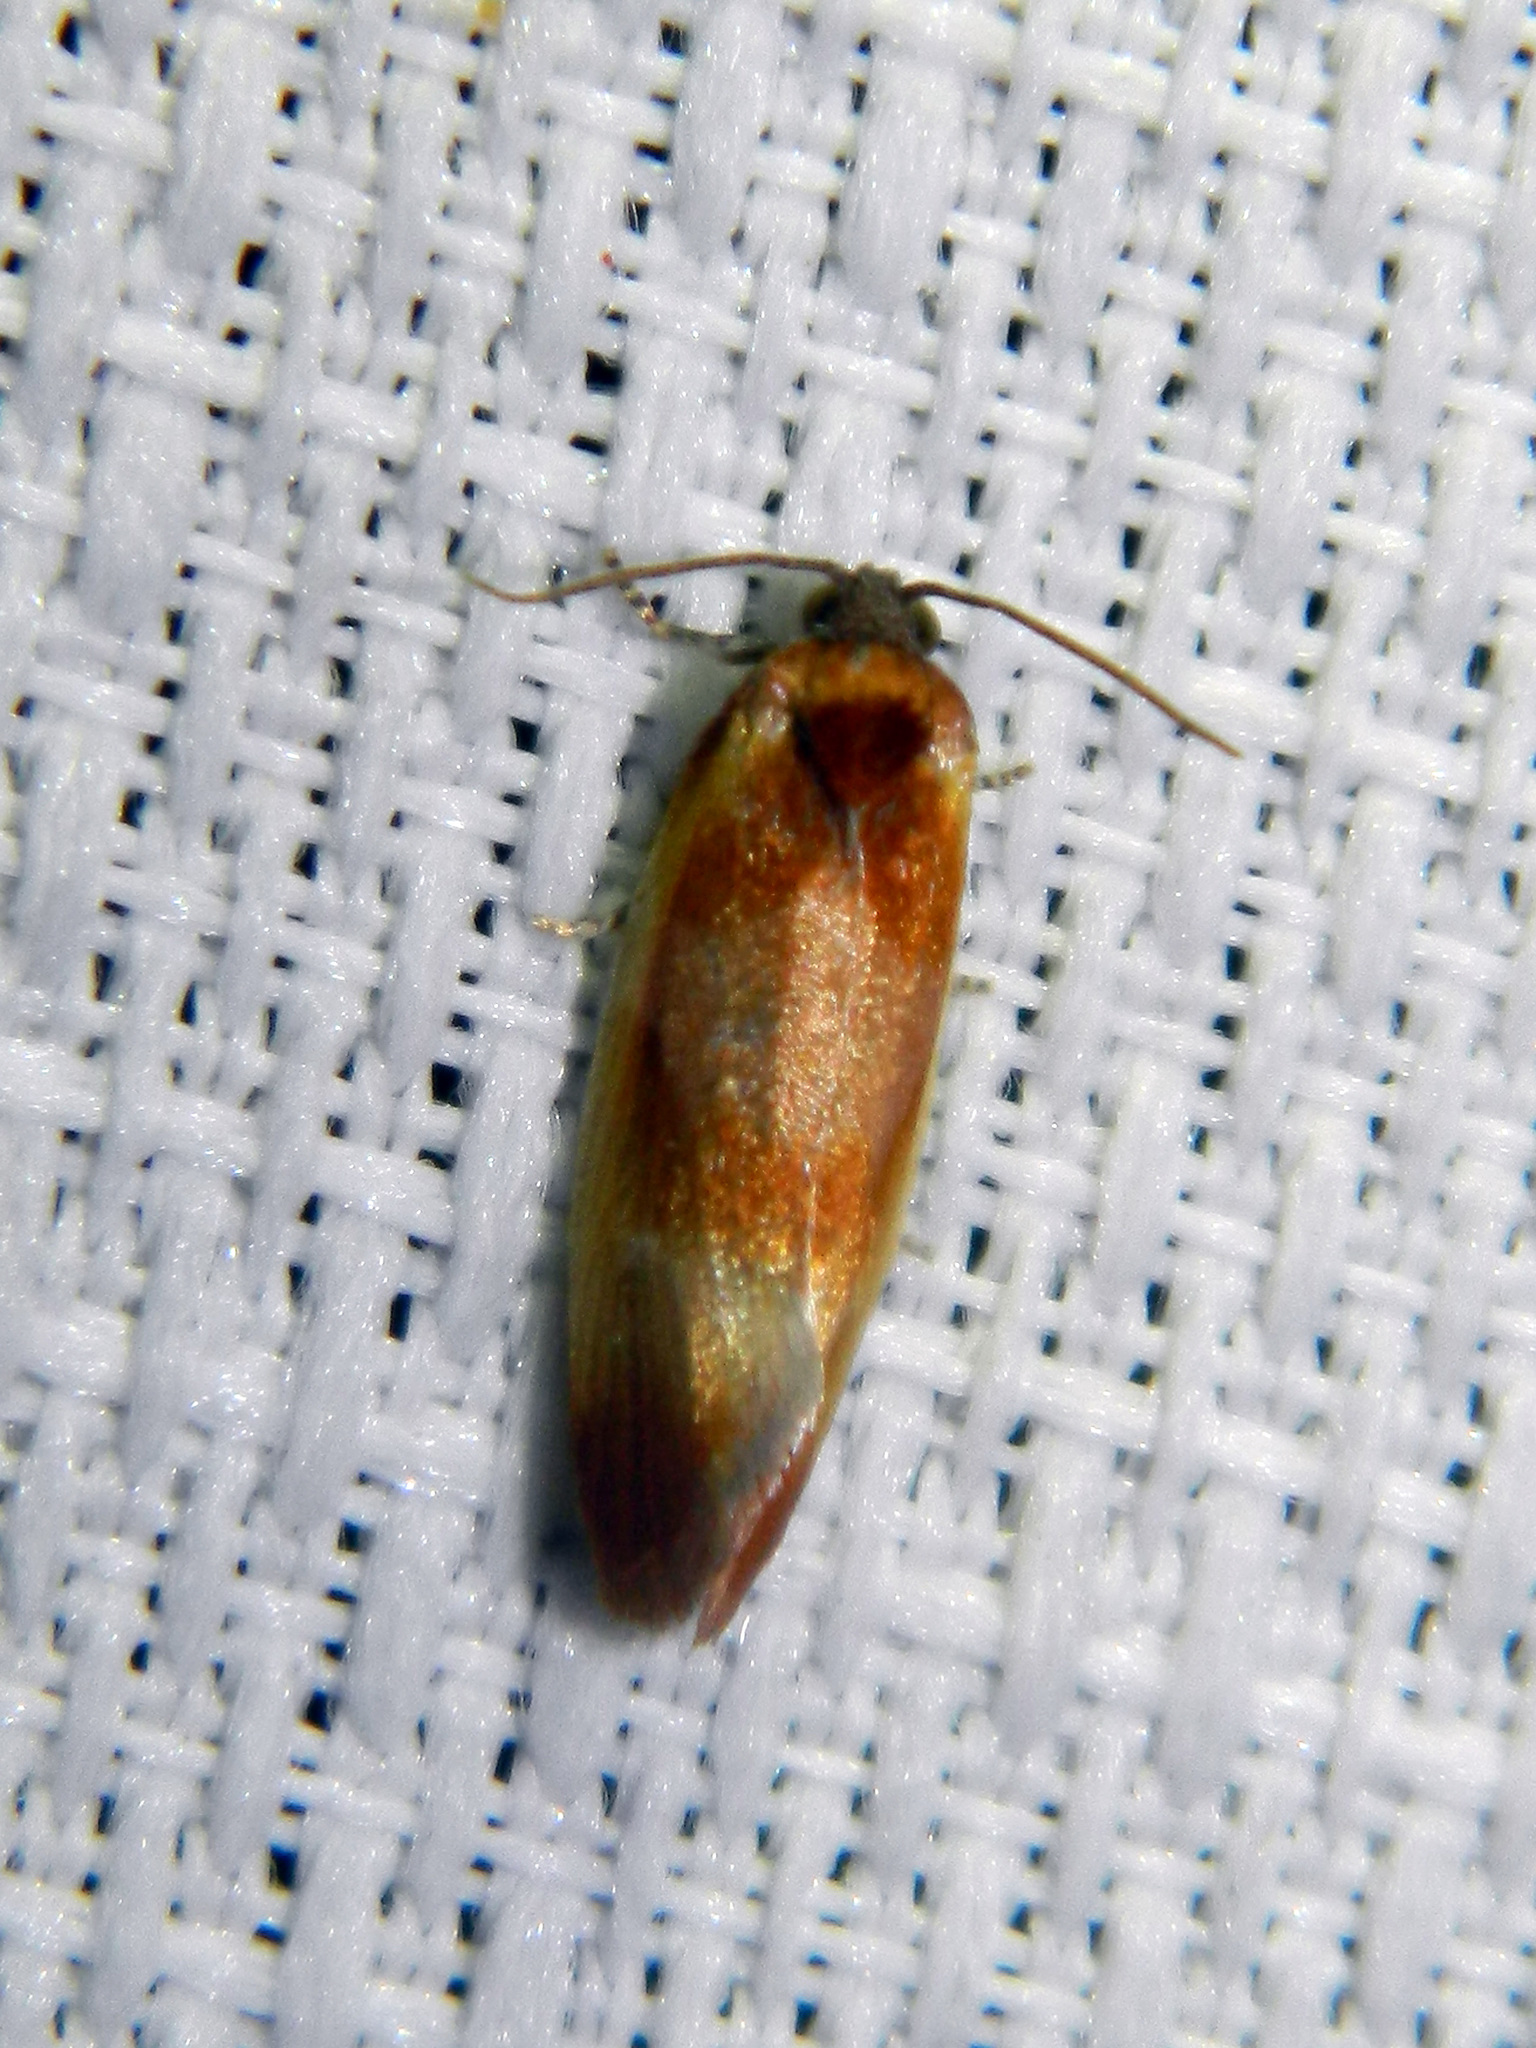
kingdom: Animalia
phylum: Arthropoda
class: Insecta
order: Lepidoptera
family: Tortricidae
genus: Eulia
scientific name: Eulia ministrana
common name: Brassy twist
